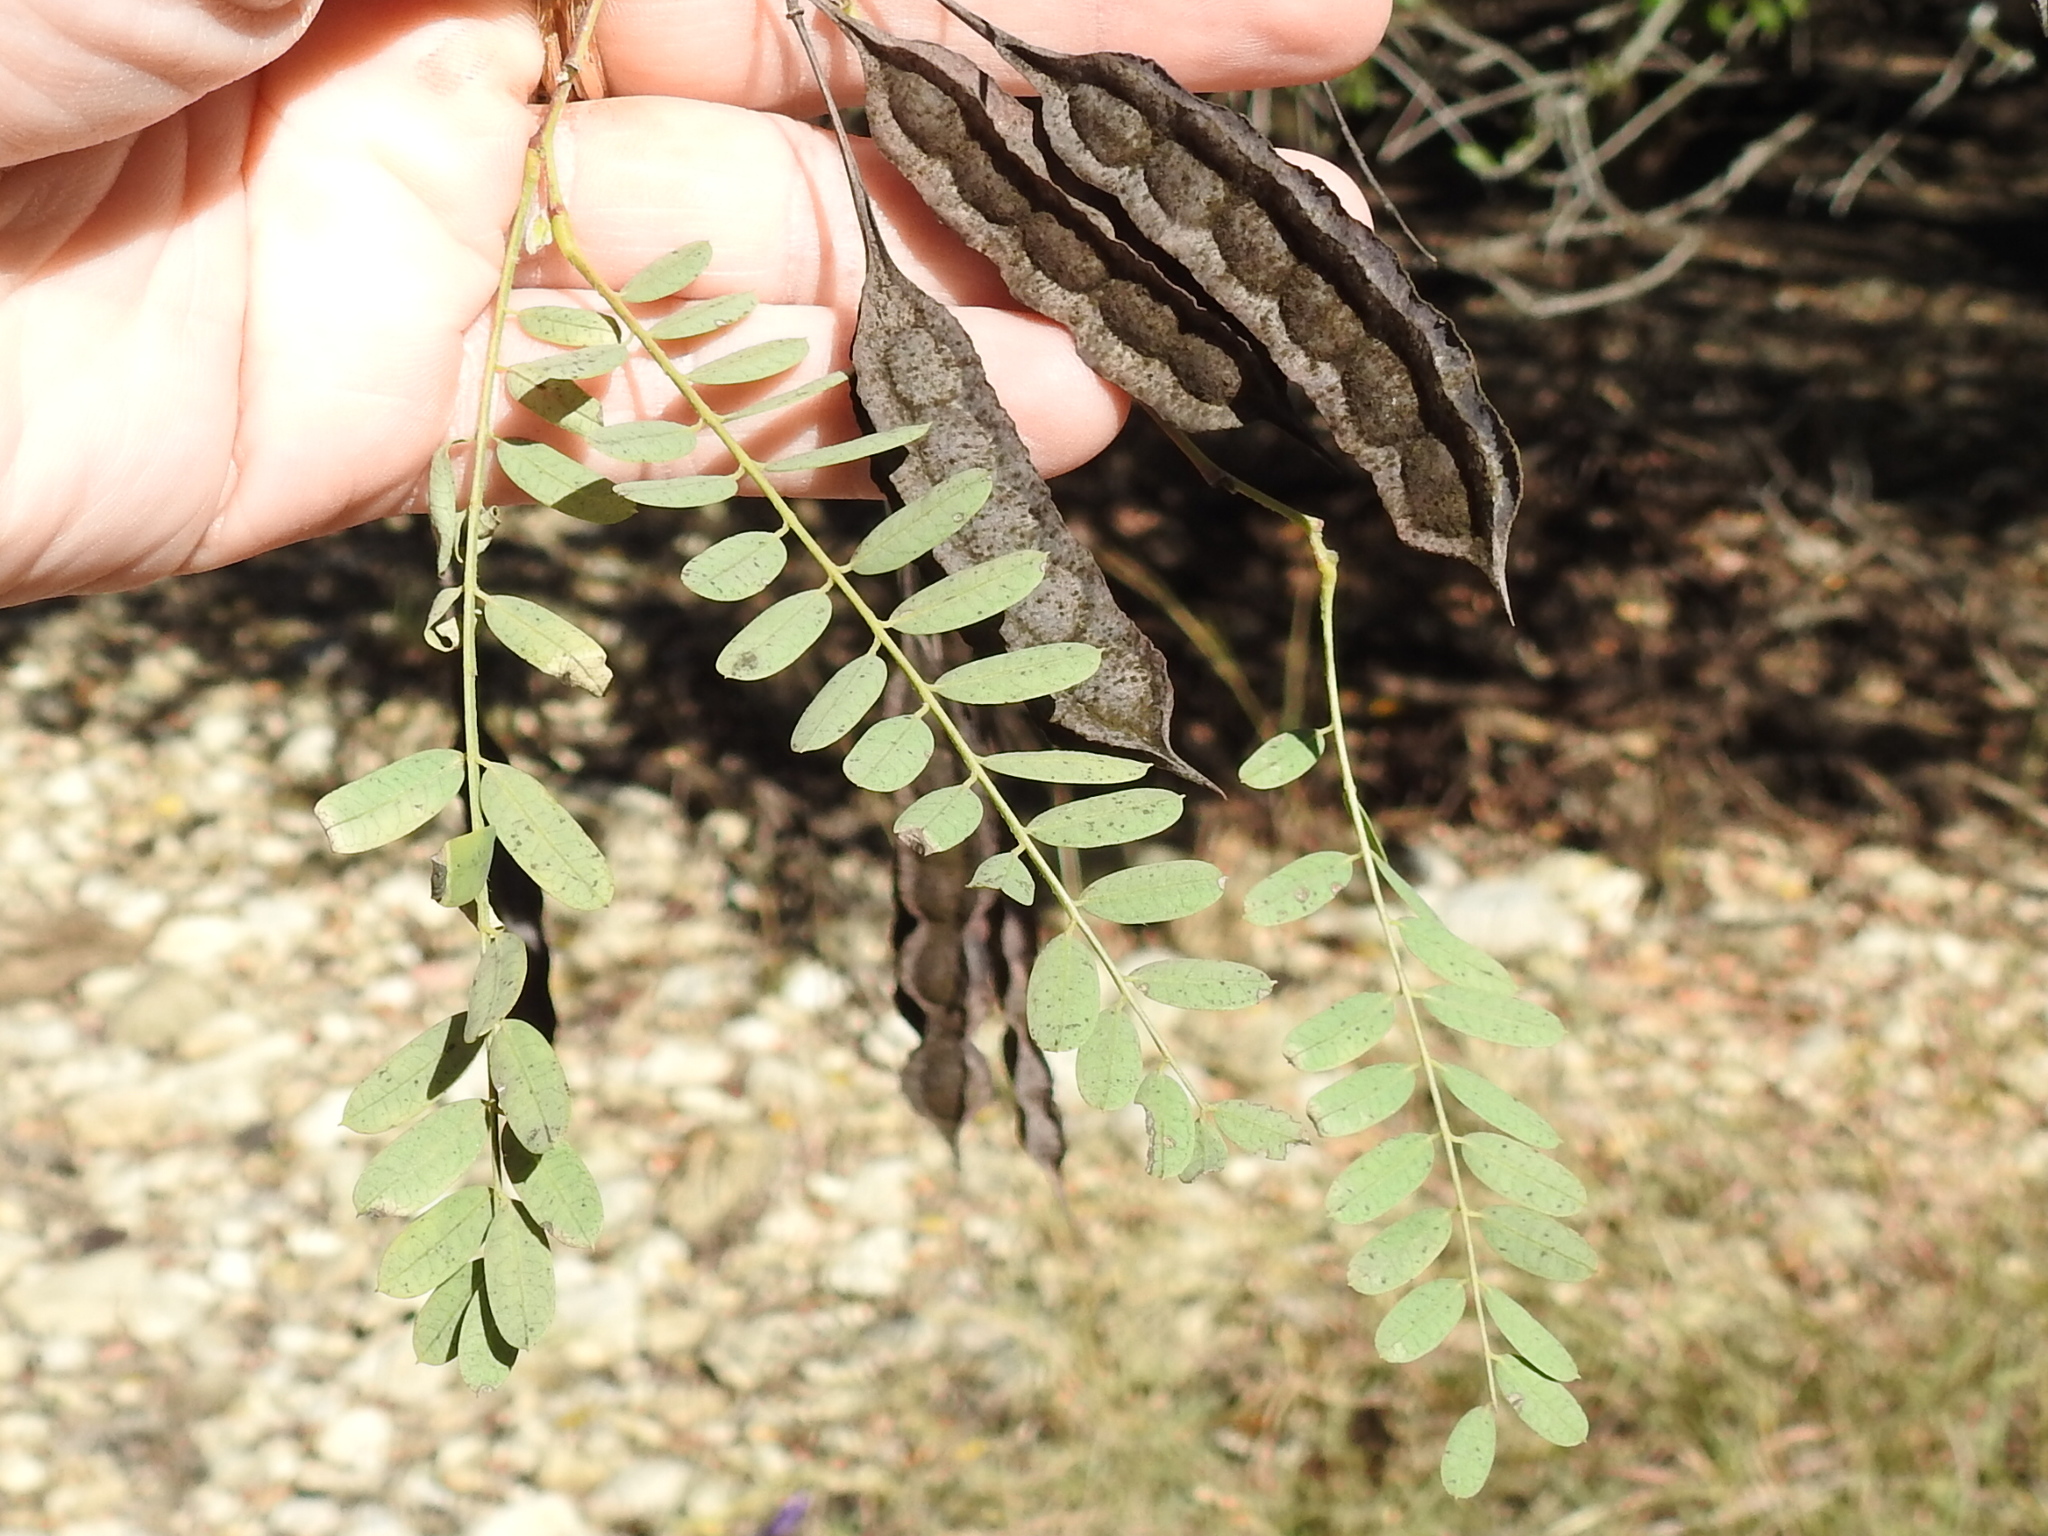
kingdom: Plantae
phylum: Tracheophyta
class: Magnoliopsida
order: Fabales
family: Fabaceae
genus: Sesbania
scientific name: Sesbania drummondii
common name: Poison-bean
